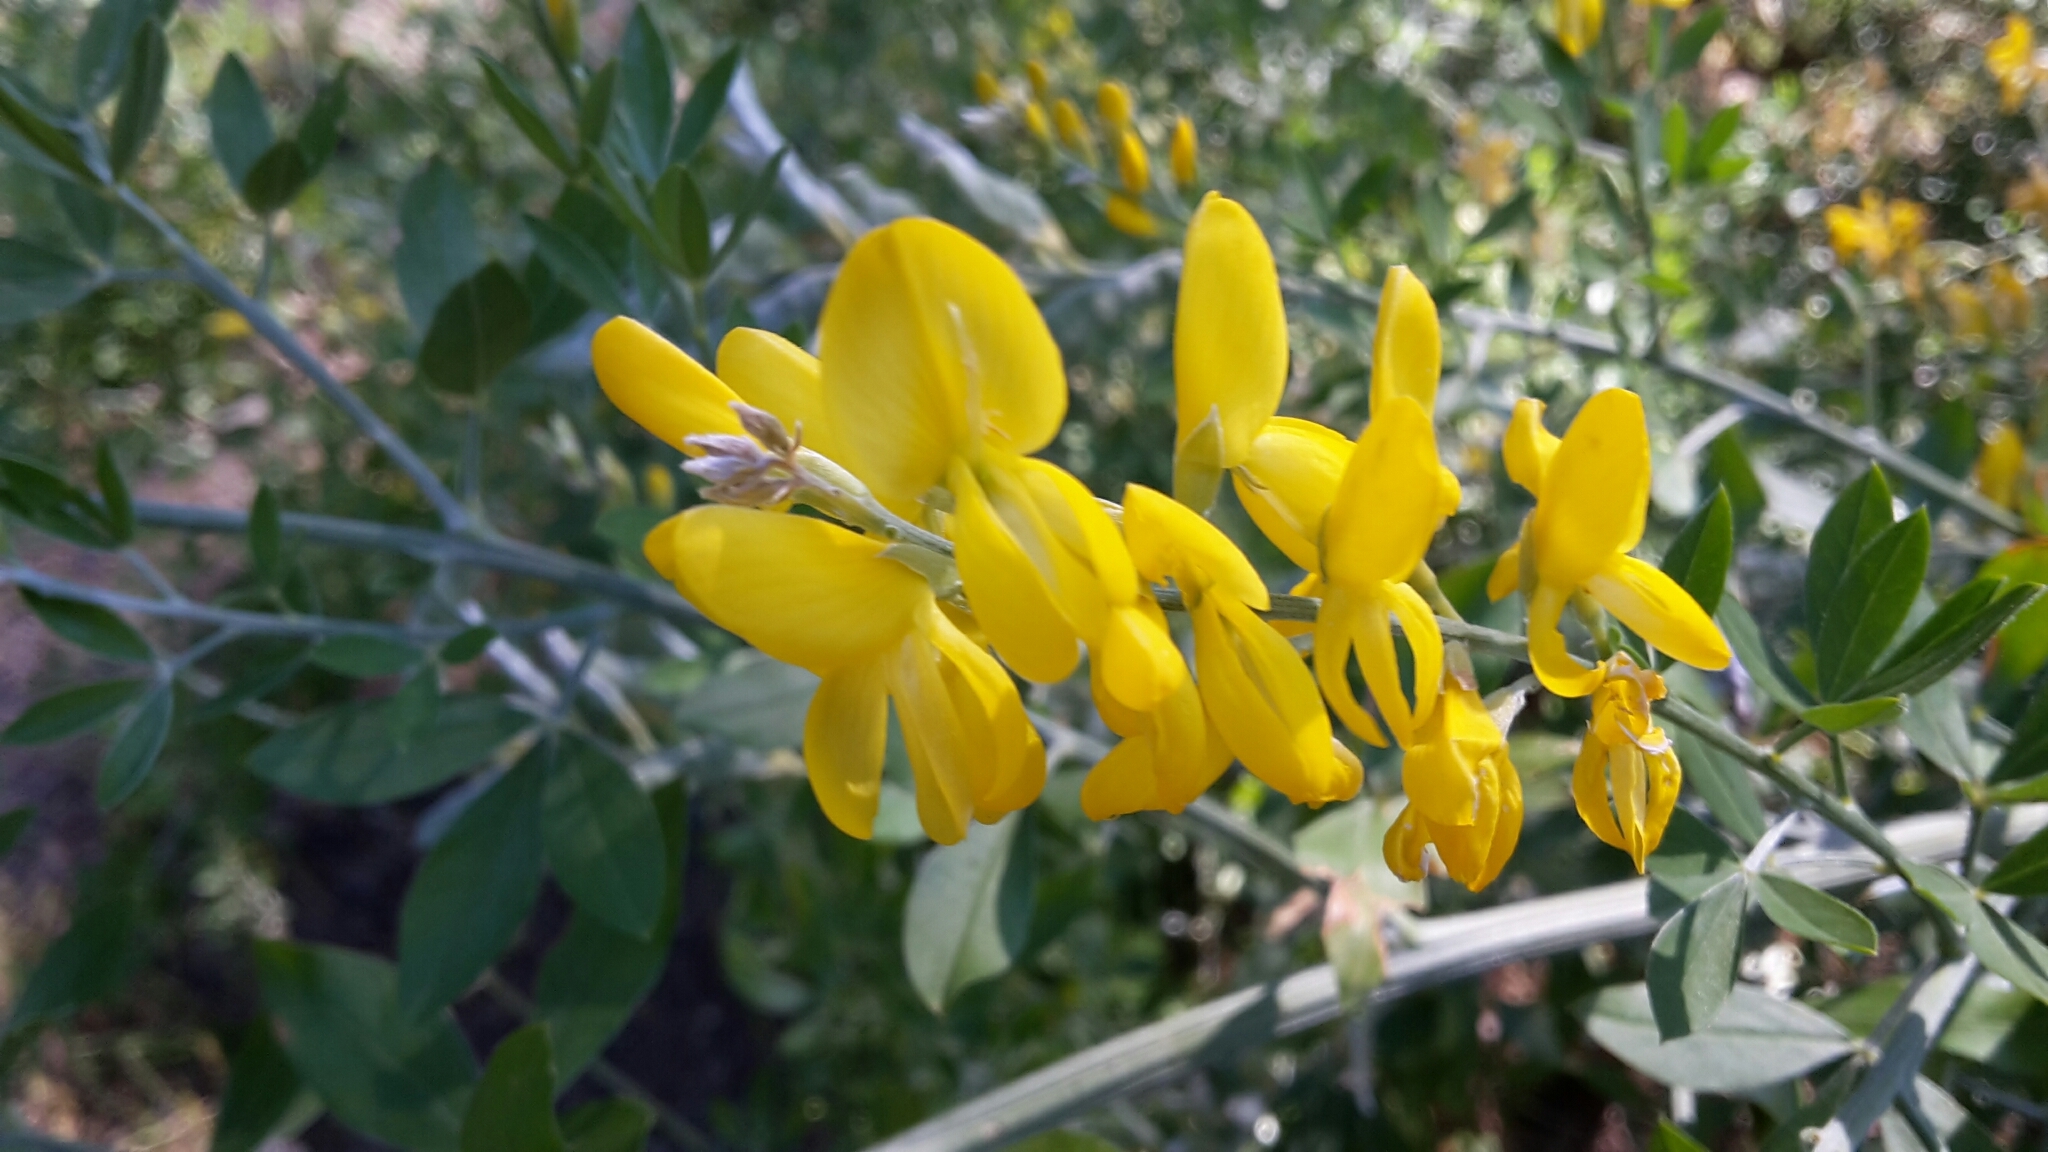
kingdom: Plantae
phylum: Tracheophyta
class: Magnoliopsida
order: Fabales
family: Fabaceae
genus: Genista
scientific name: Genista stenopetala
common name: Leafy broom
